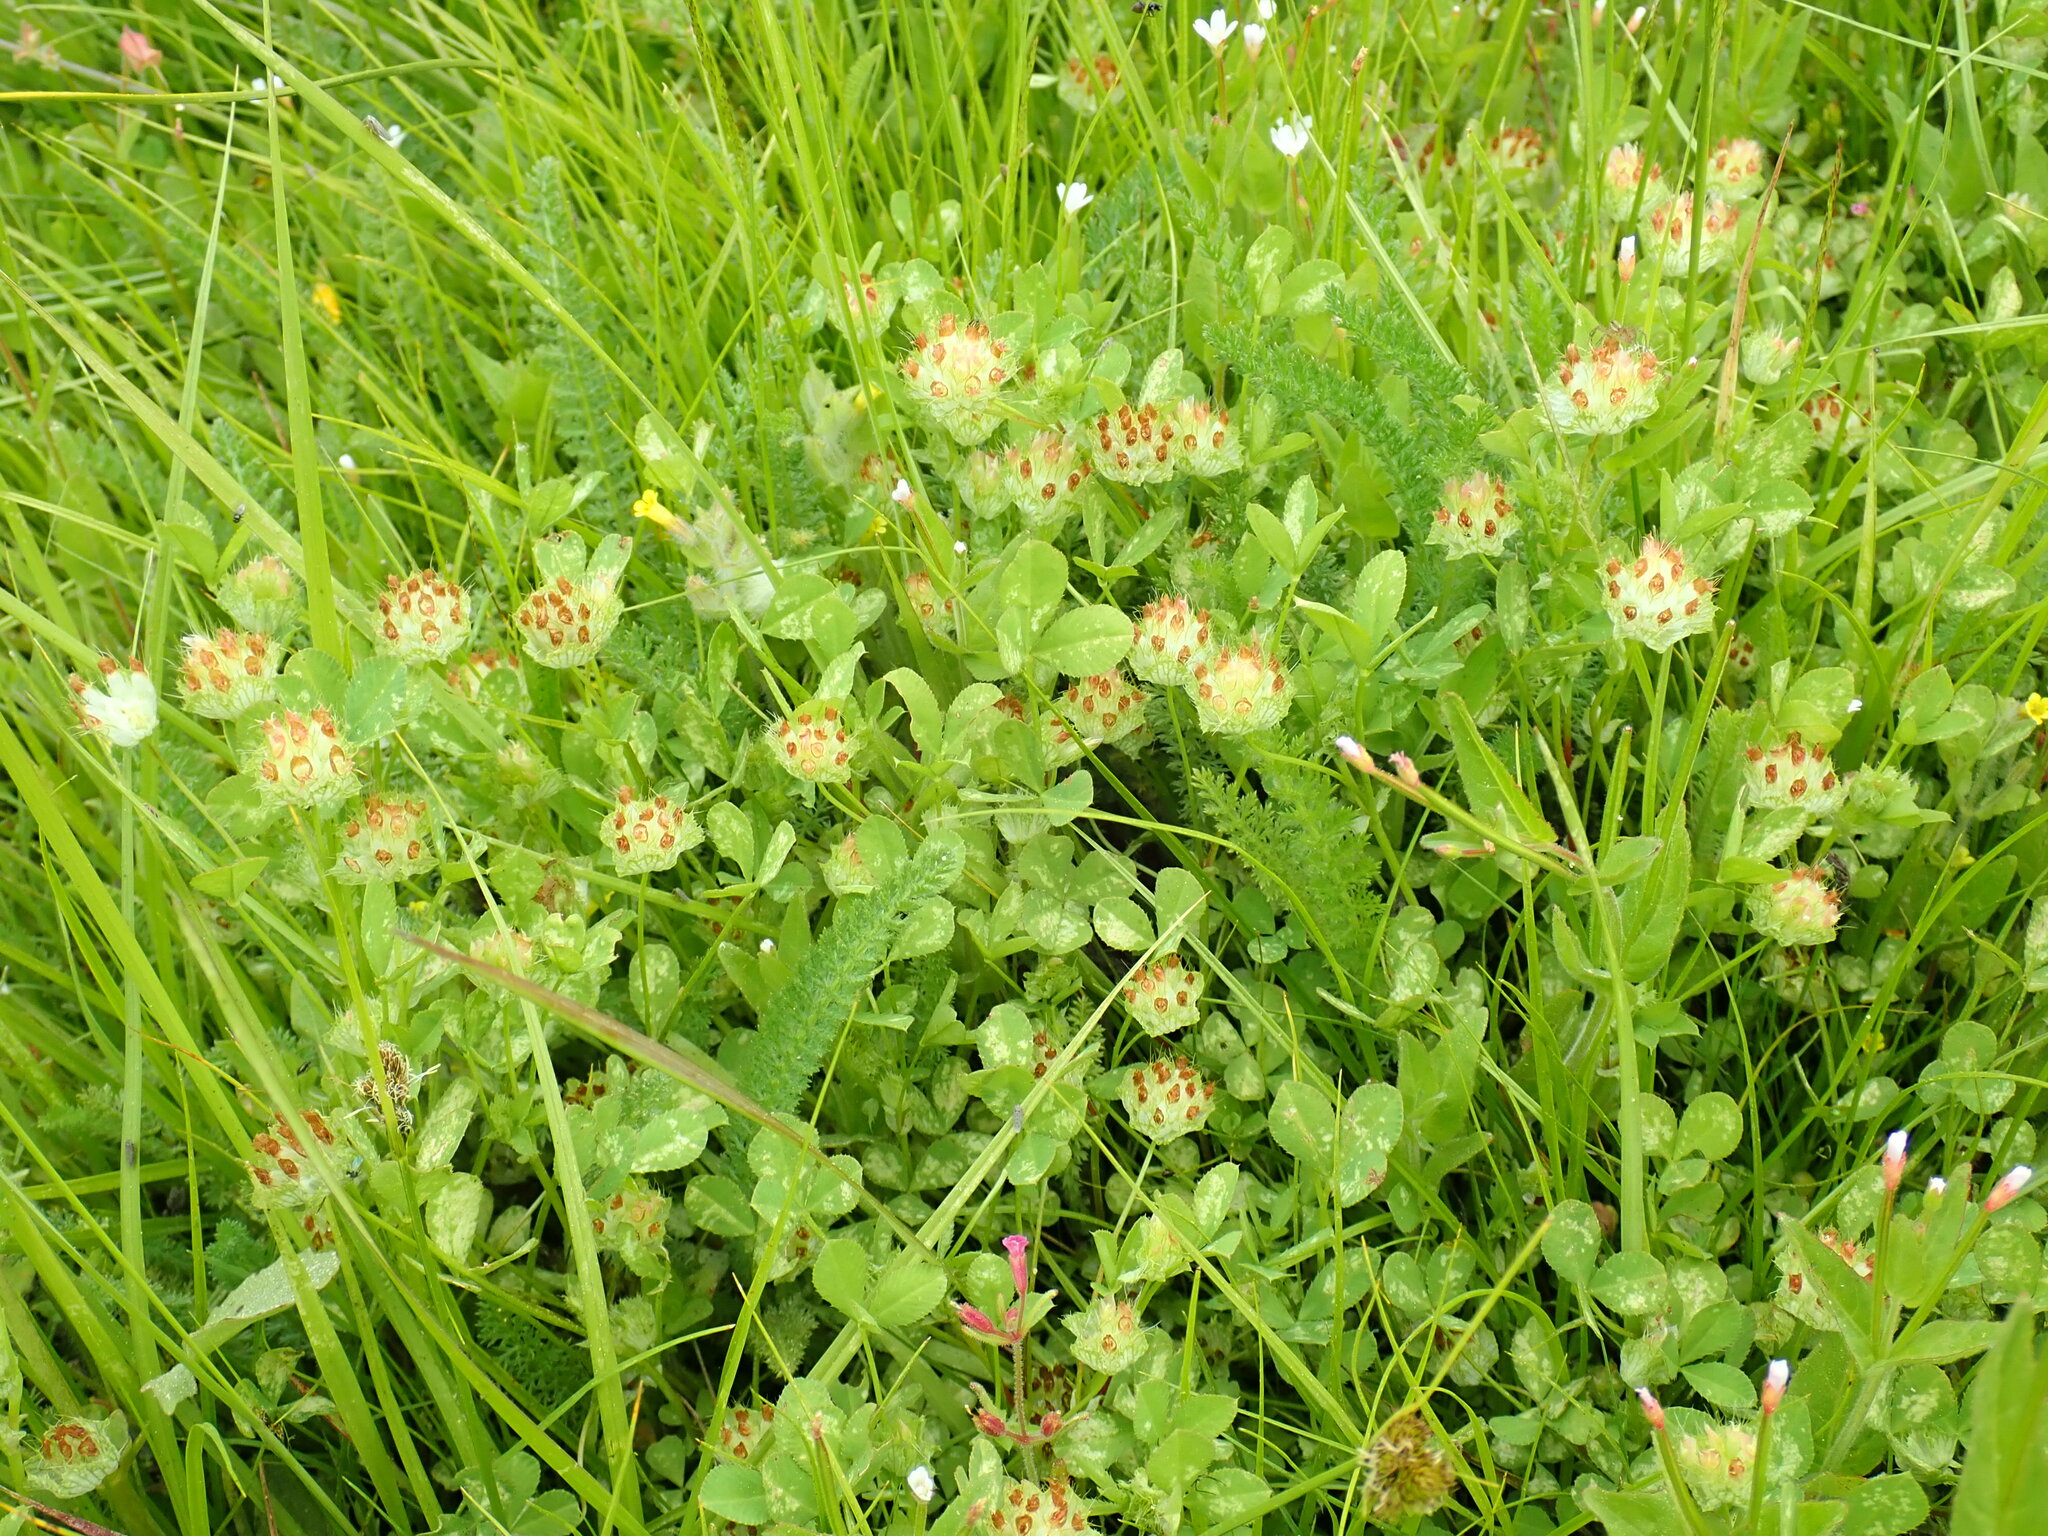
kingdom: Plantae
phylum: Tracheophyta
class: Magnoliopsida
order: Fabales
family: Fabaceae
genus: Trifolium
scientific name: Trifolium cyathiferum
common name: Bowl clover
